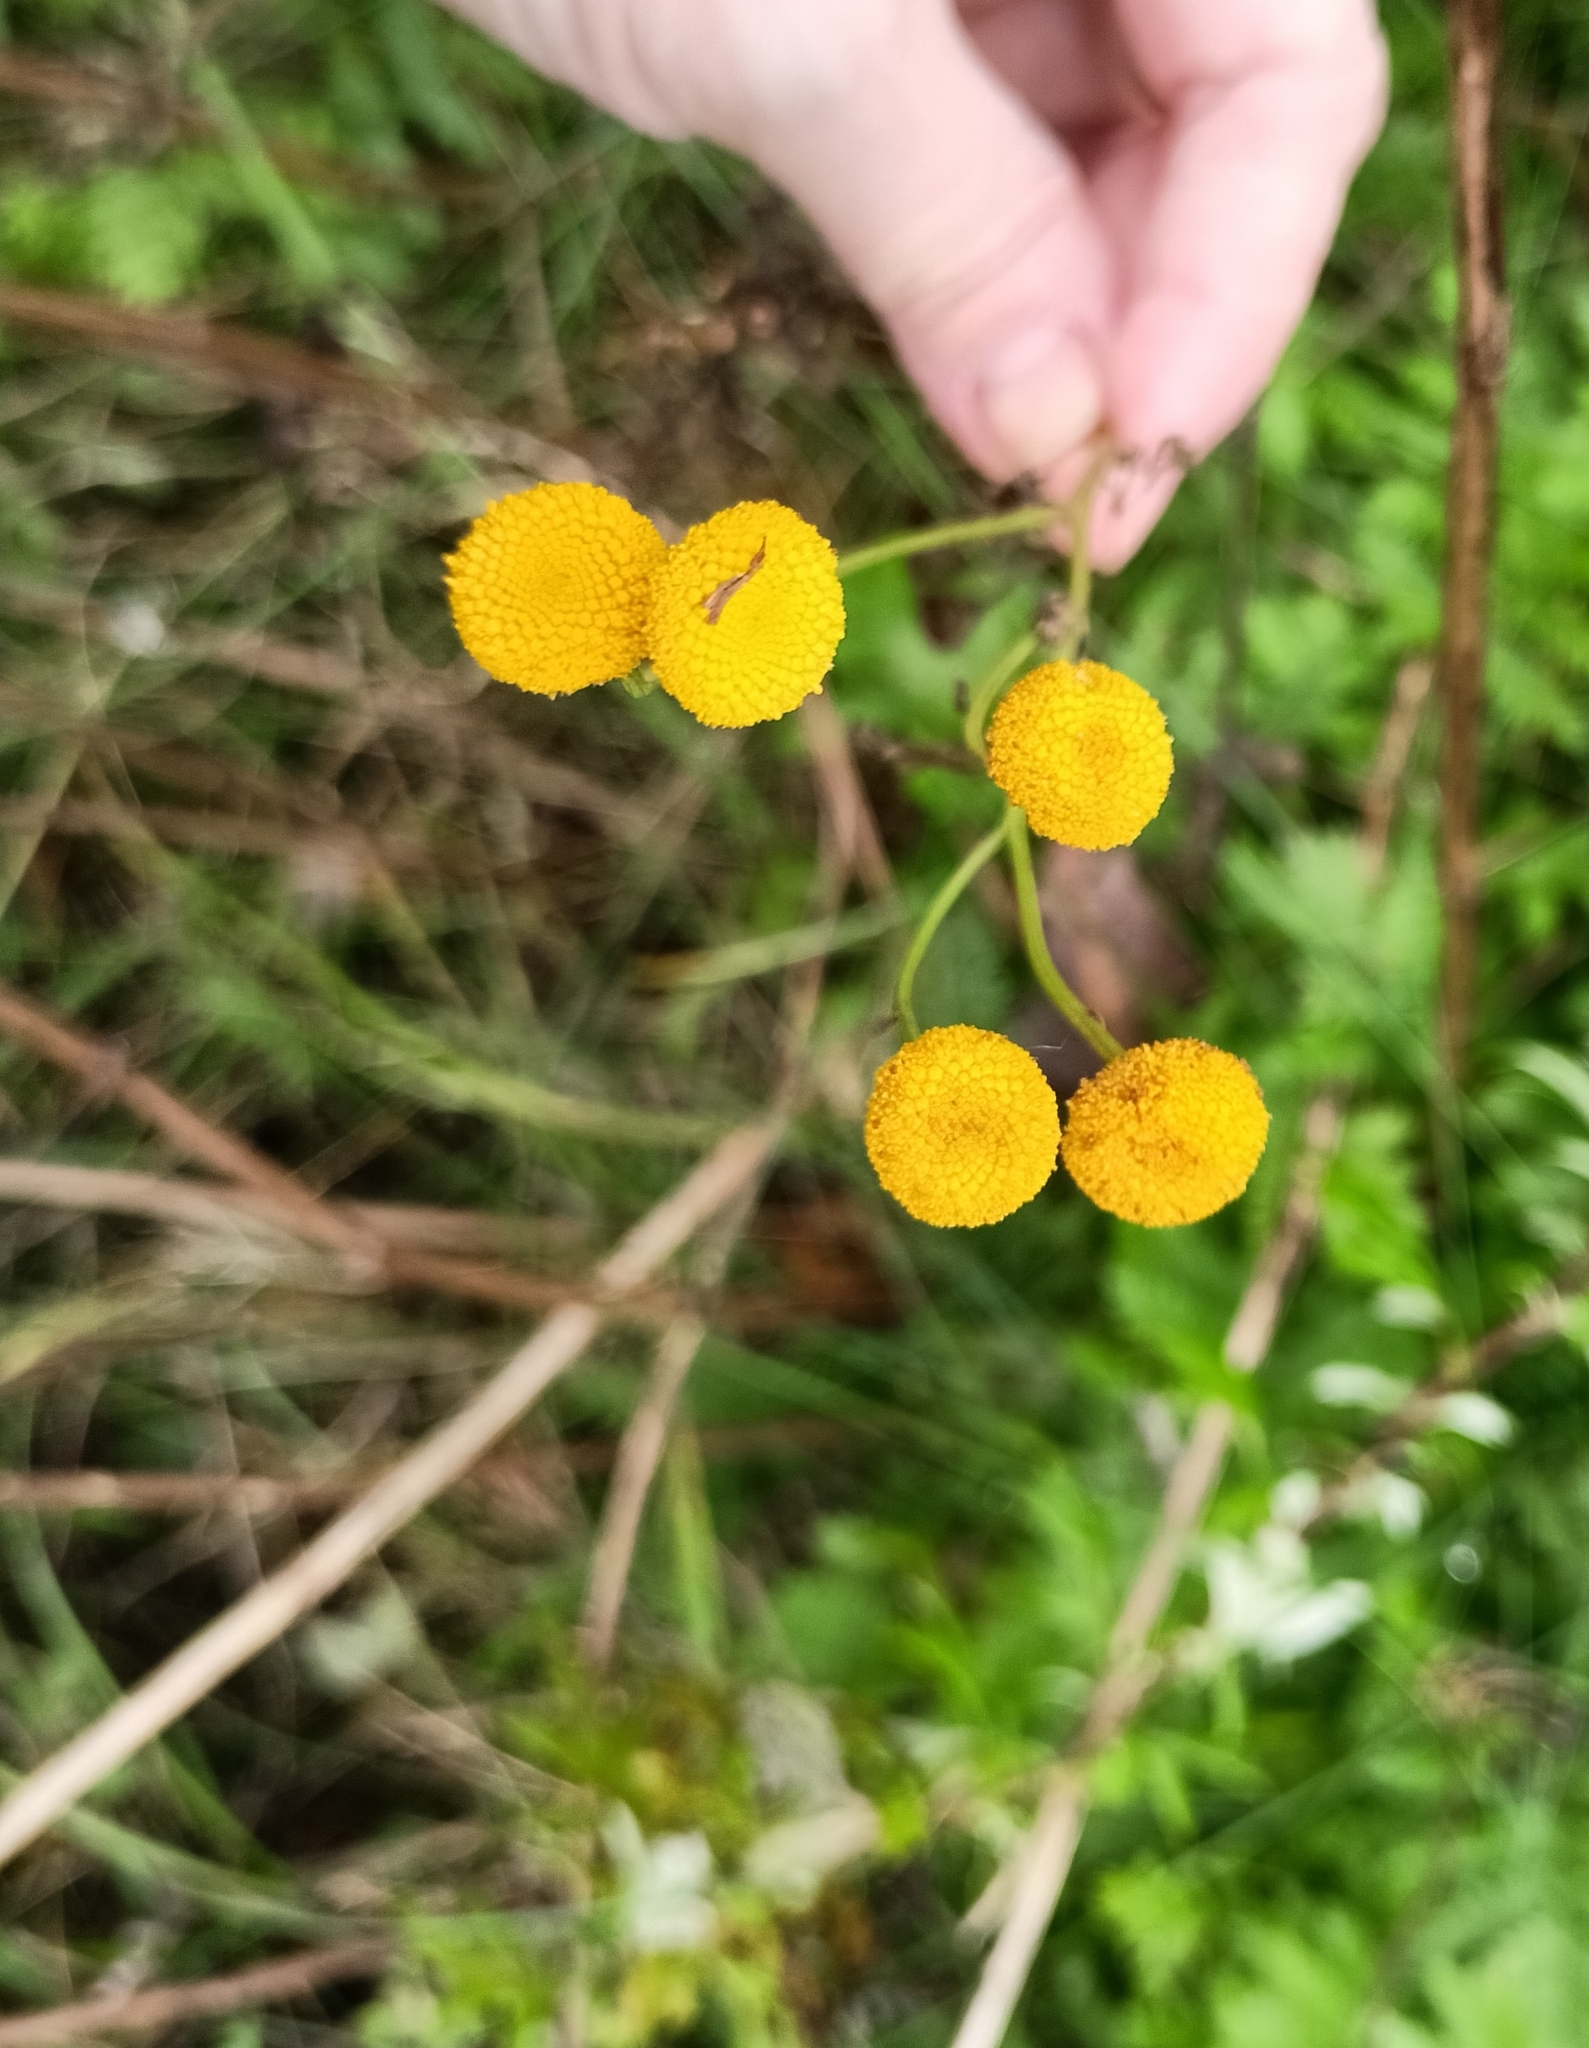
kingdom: Plantae
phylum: Tracheophyta
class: Magnoliopsida
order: Asterales
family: Asteraceae
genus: Tanacetum
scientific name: Tanacetum vulgare
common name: Common tansy
